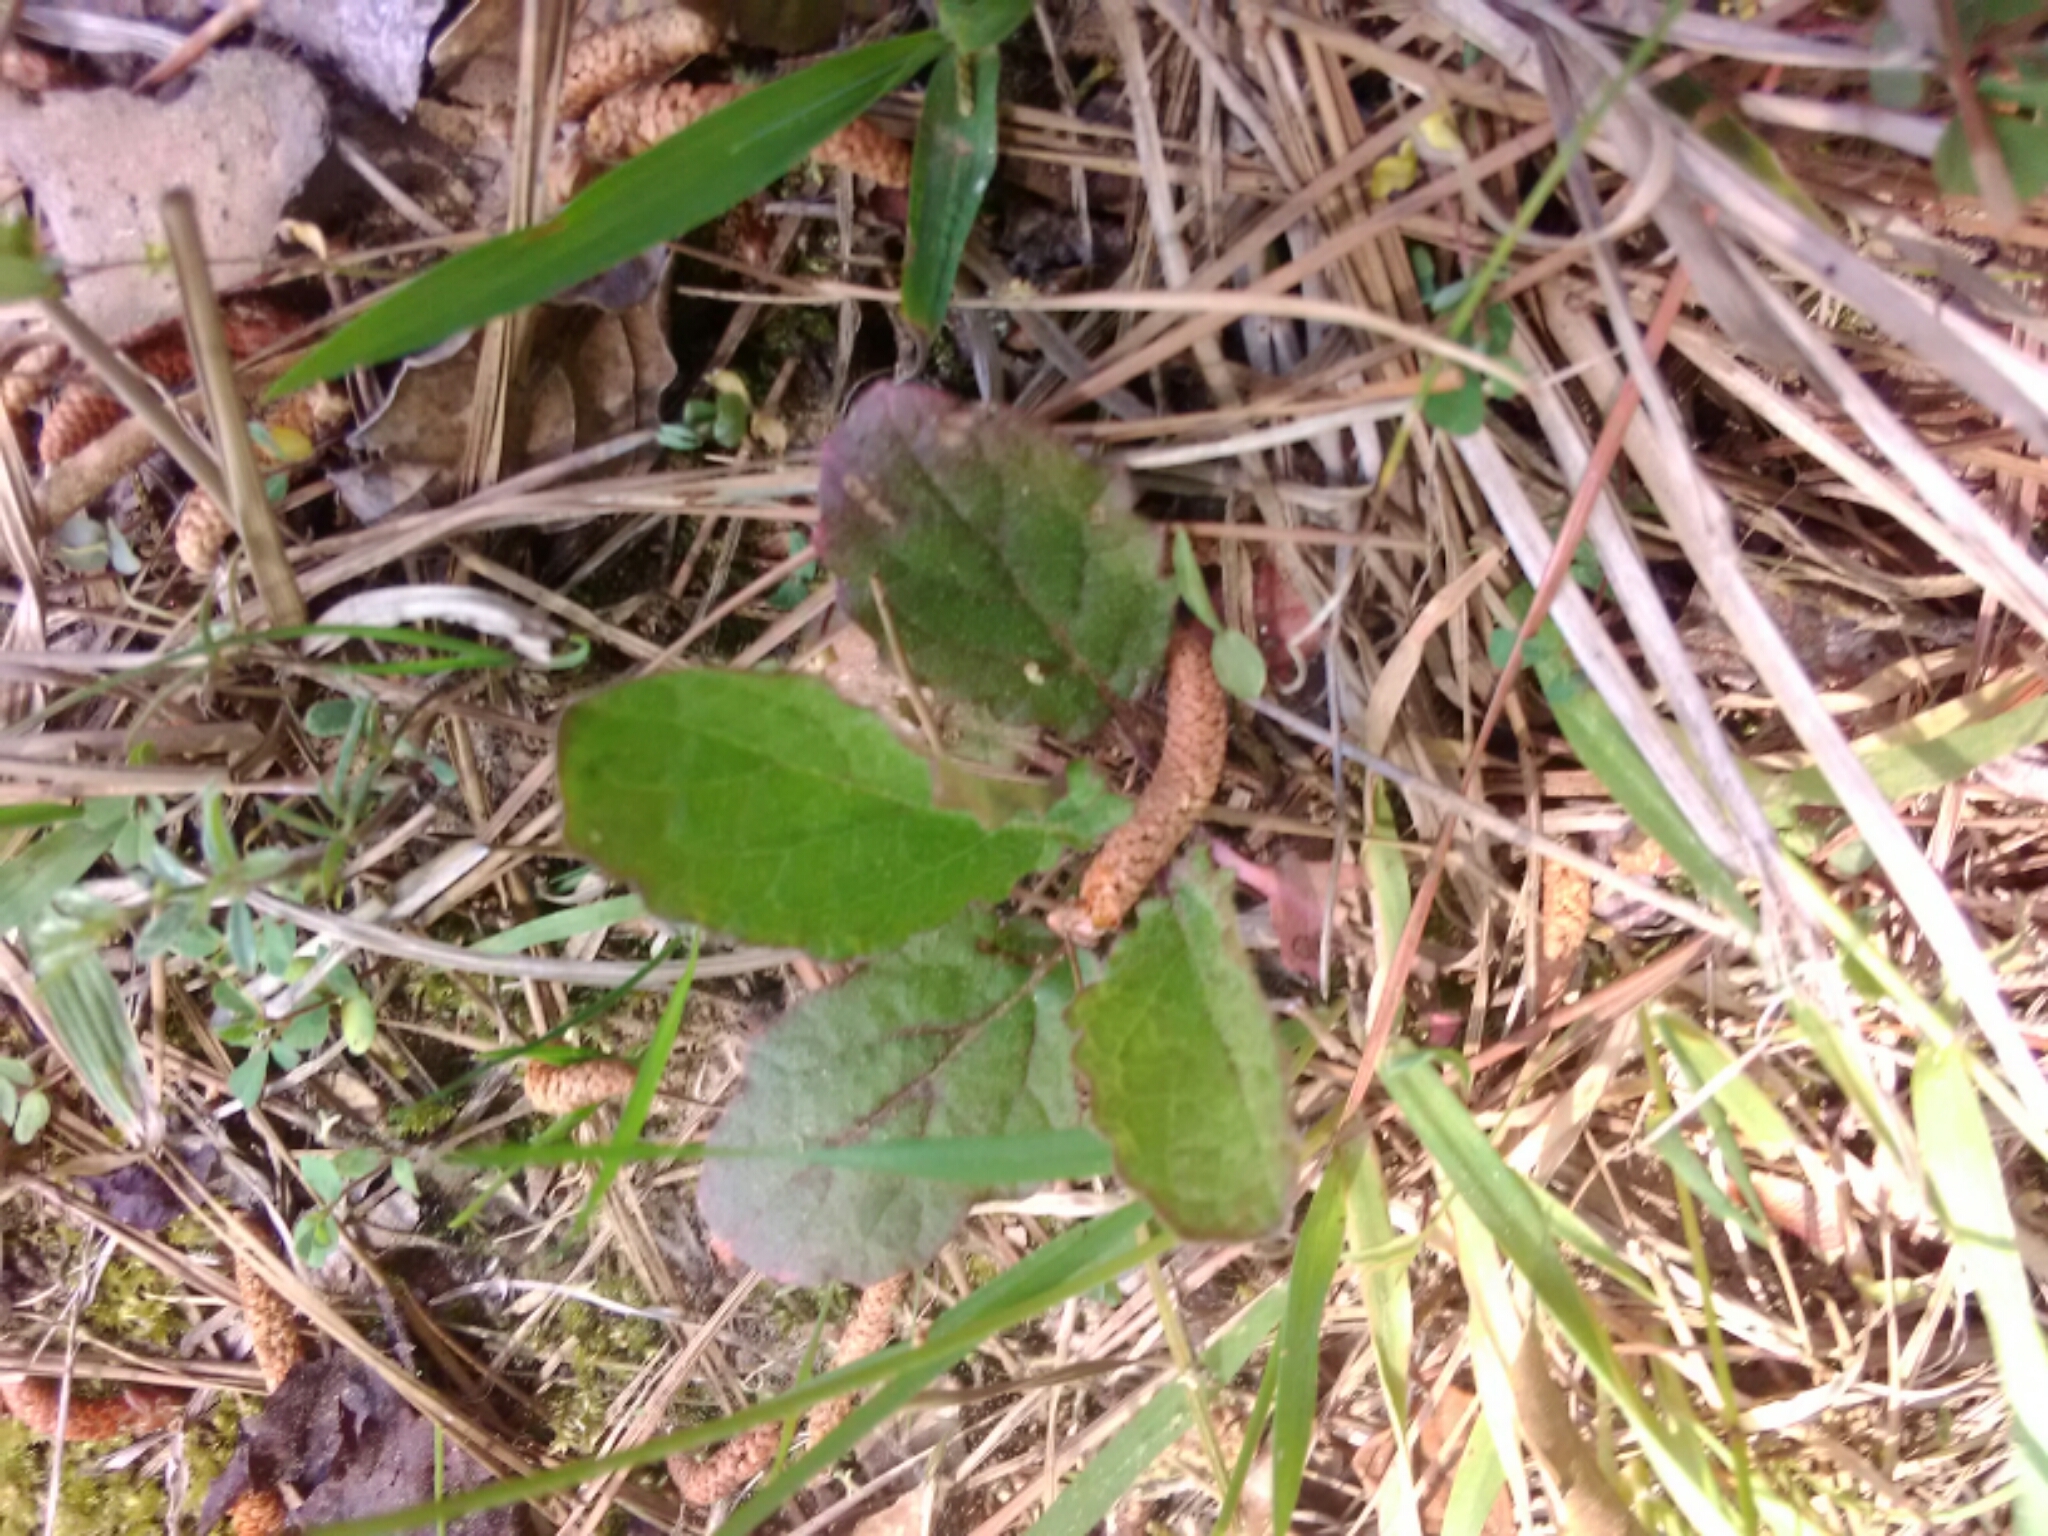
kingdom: Plantae
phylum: Tracheophyta
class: Magnoliopsida
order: Lamiales
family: Lamiaceae
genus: Salvia
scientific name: Salvia lyrata
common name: Cancerweed
